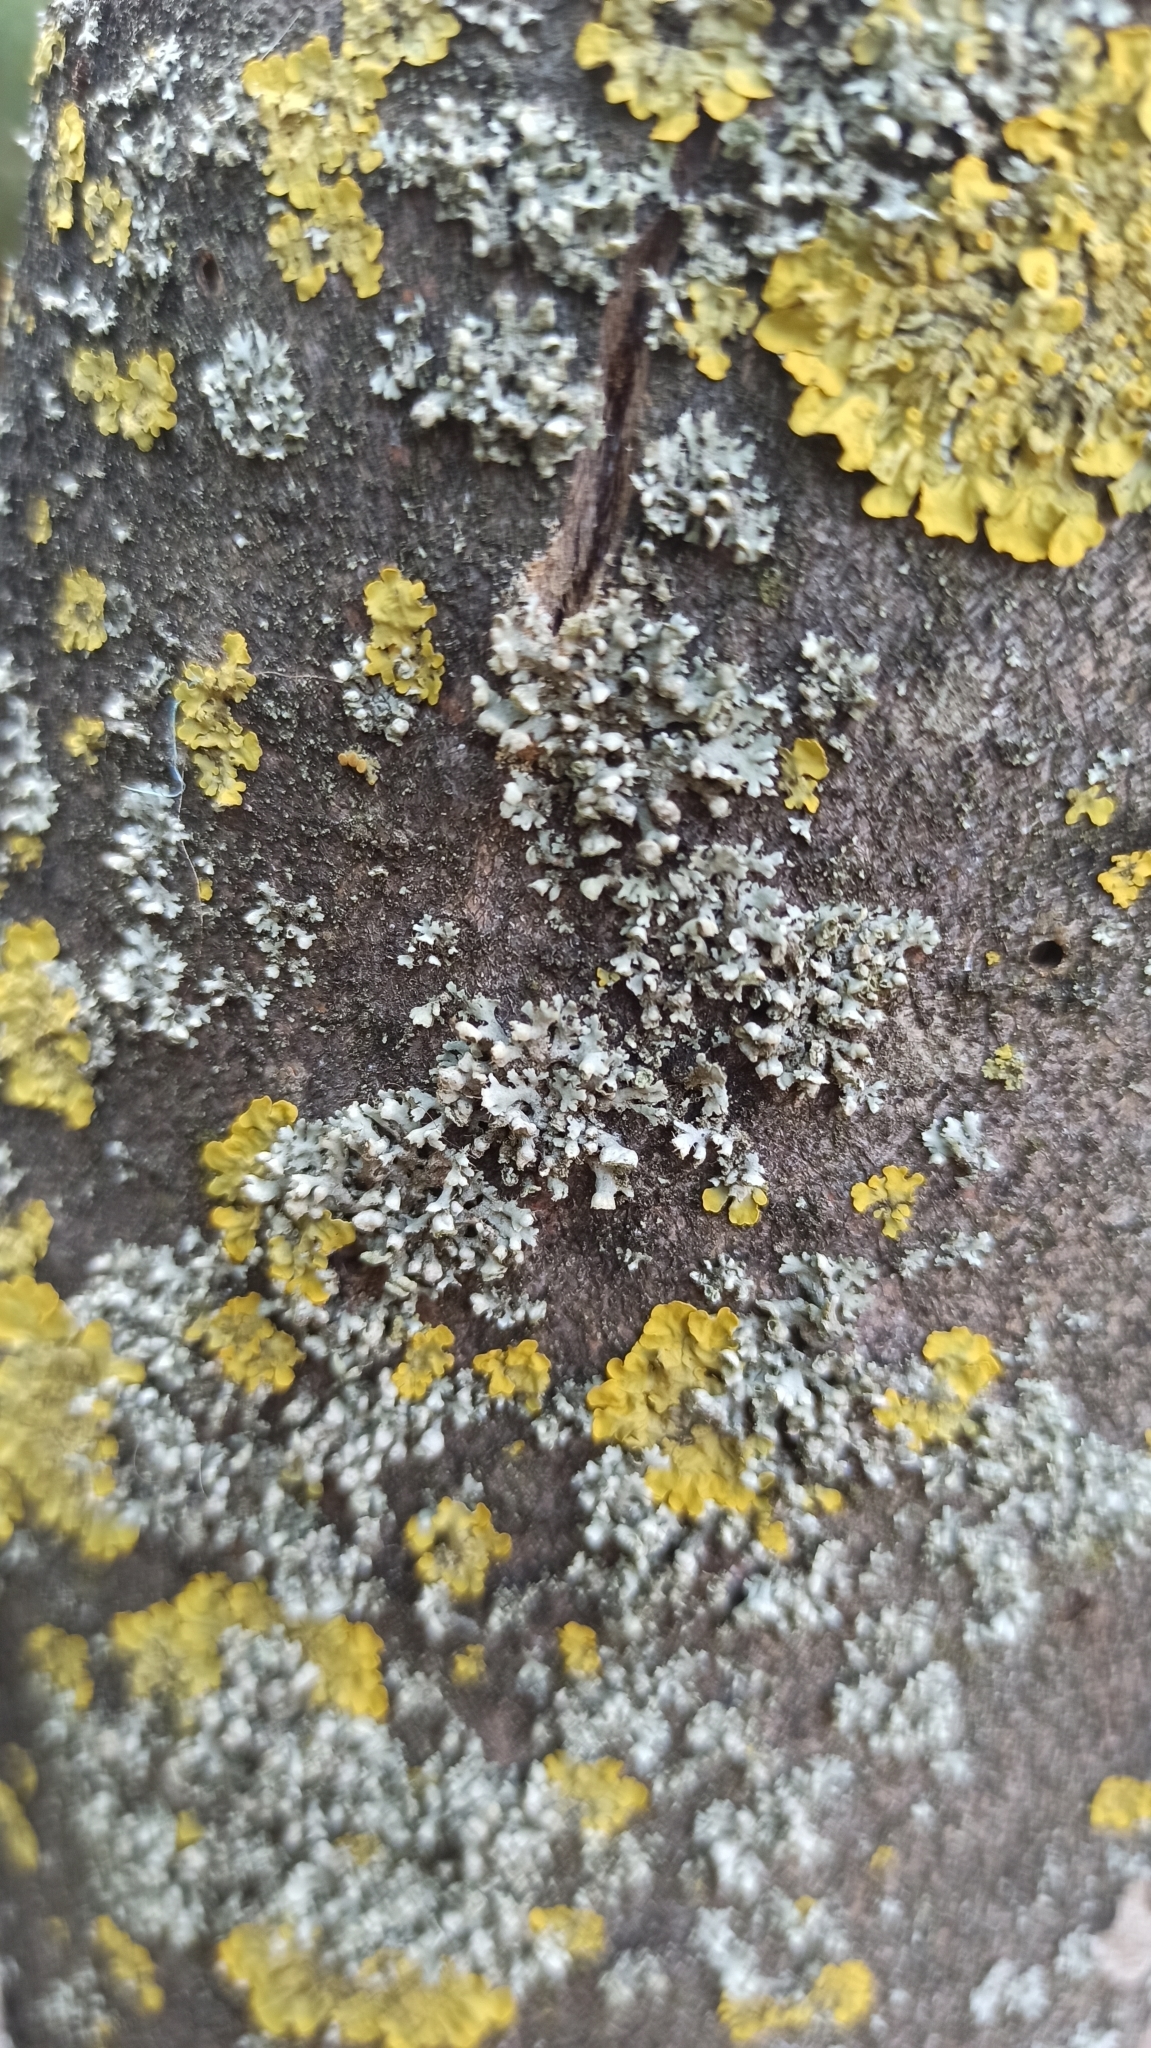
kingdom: Fungi
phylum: Ascomycota
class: Lecanoromycetes
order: Caliciales
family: Physciaceae
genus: Phaeophyscia
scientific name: Phaeophyscia orbicularis
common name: Mealy shadow lichen
